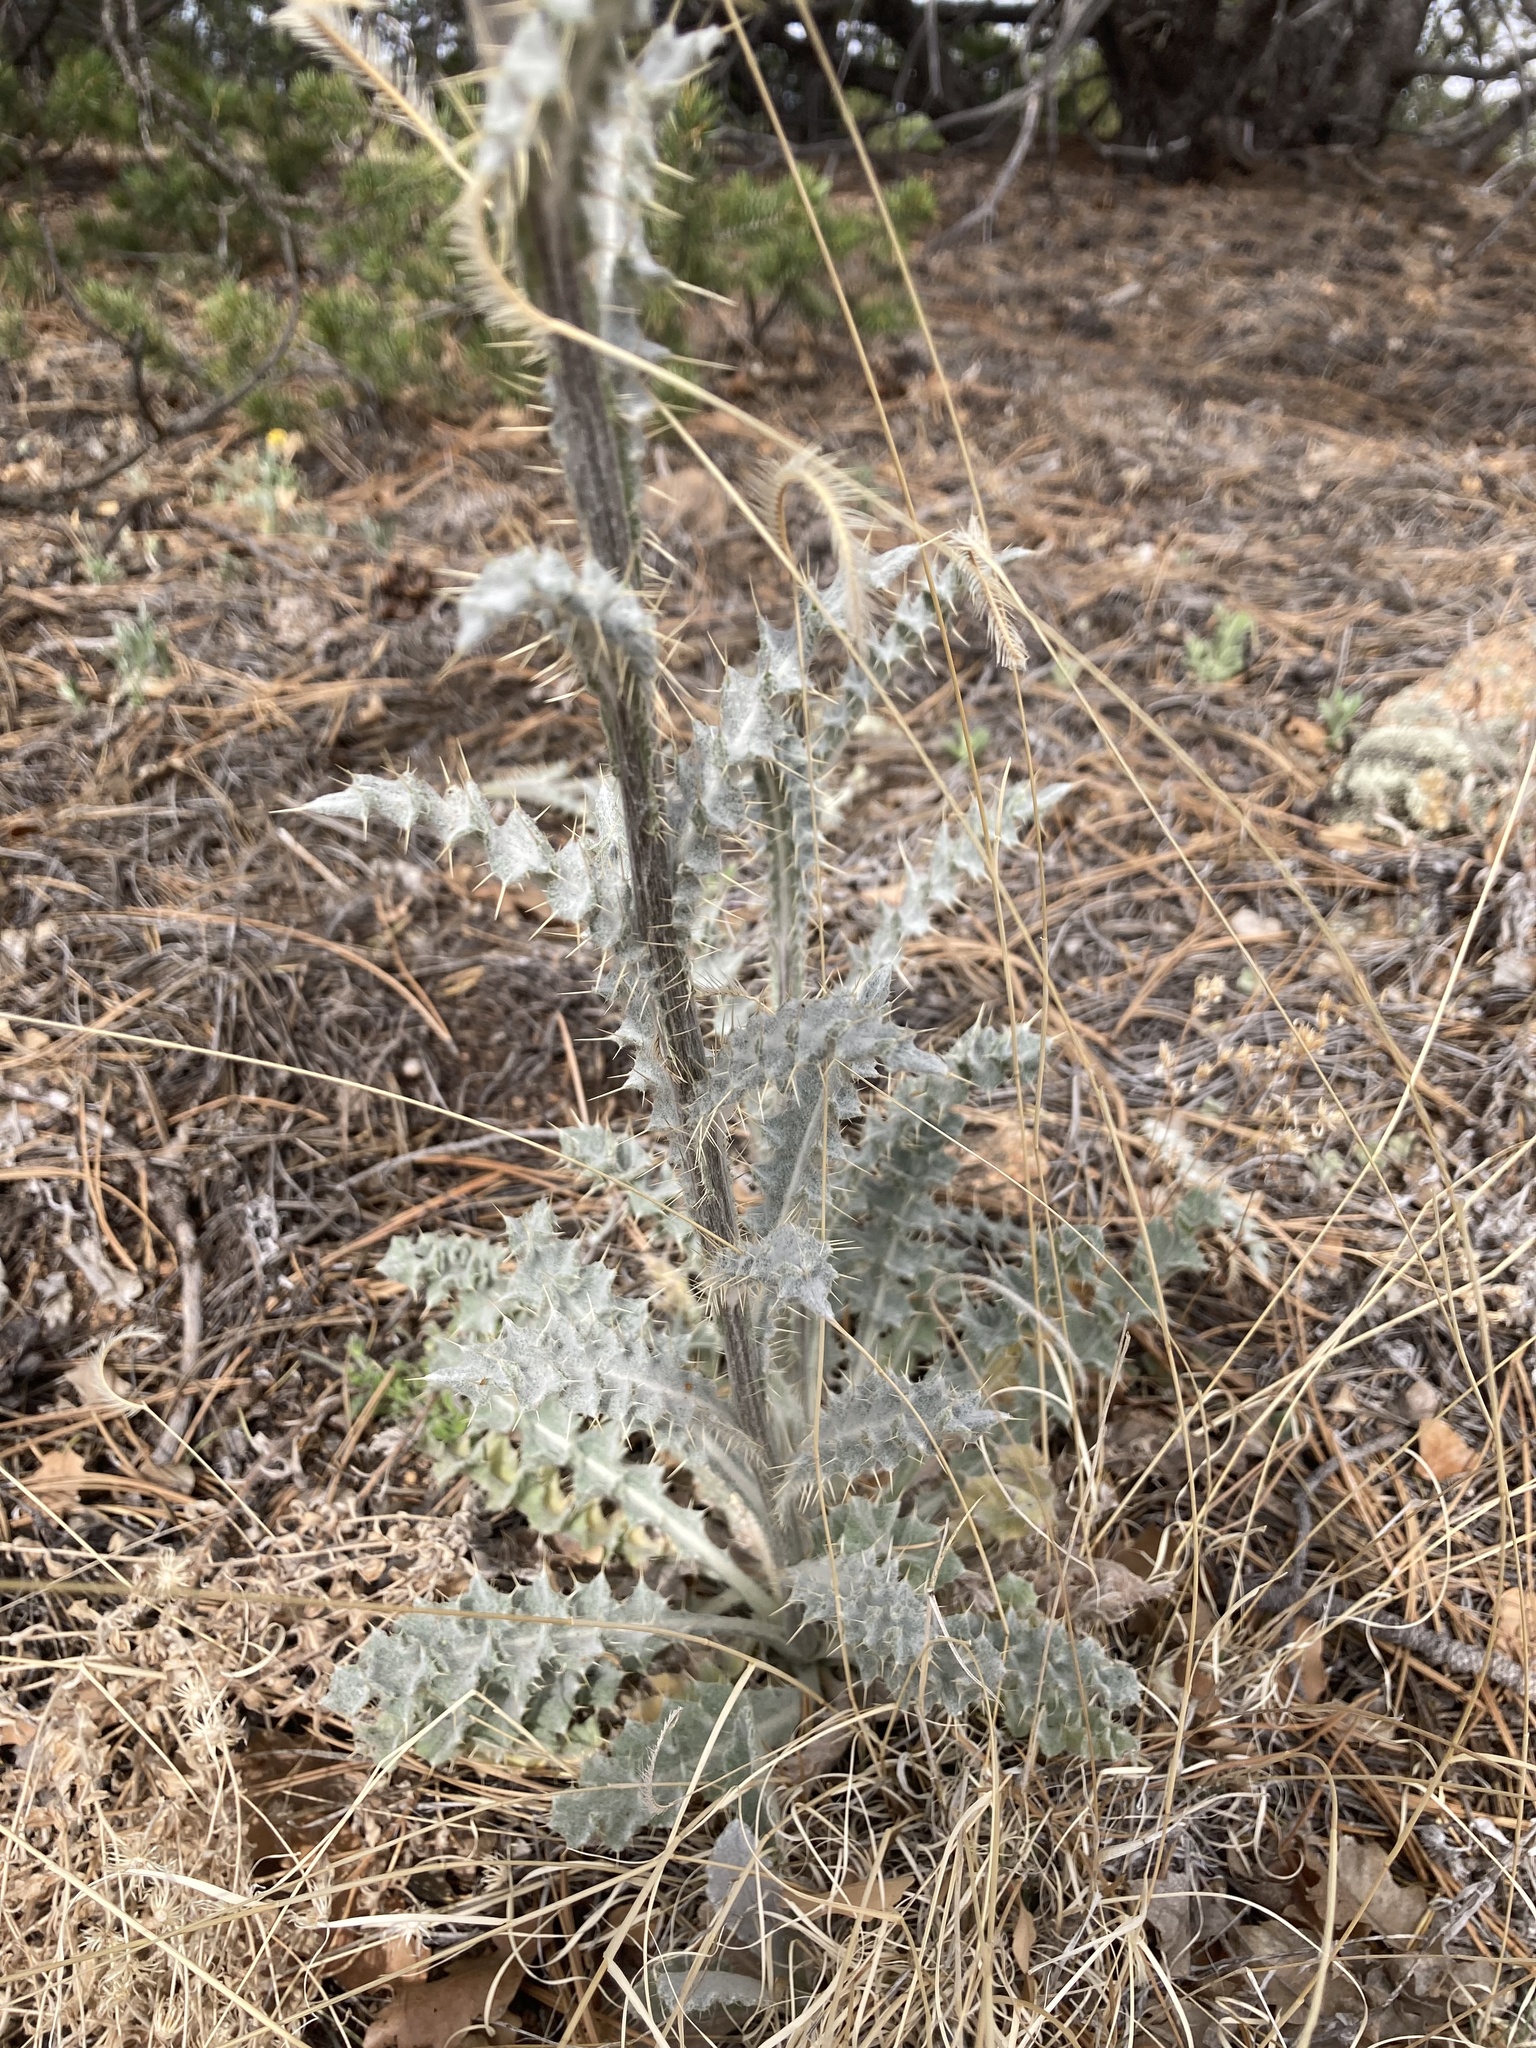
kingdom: Plantae
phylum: Tracheophyta
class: Magnoliopsida
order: Asterales
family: Asteraceae
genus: Cirsium
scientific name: Cirsium neomexicanum
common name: New mexico thistle
